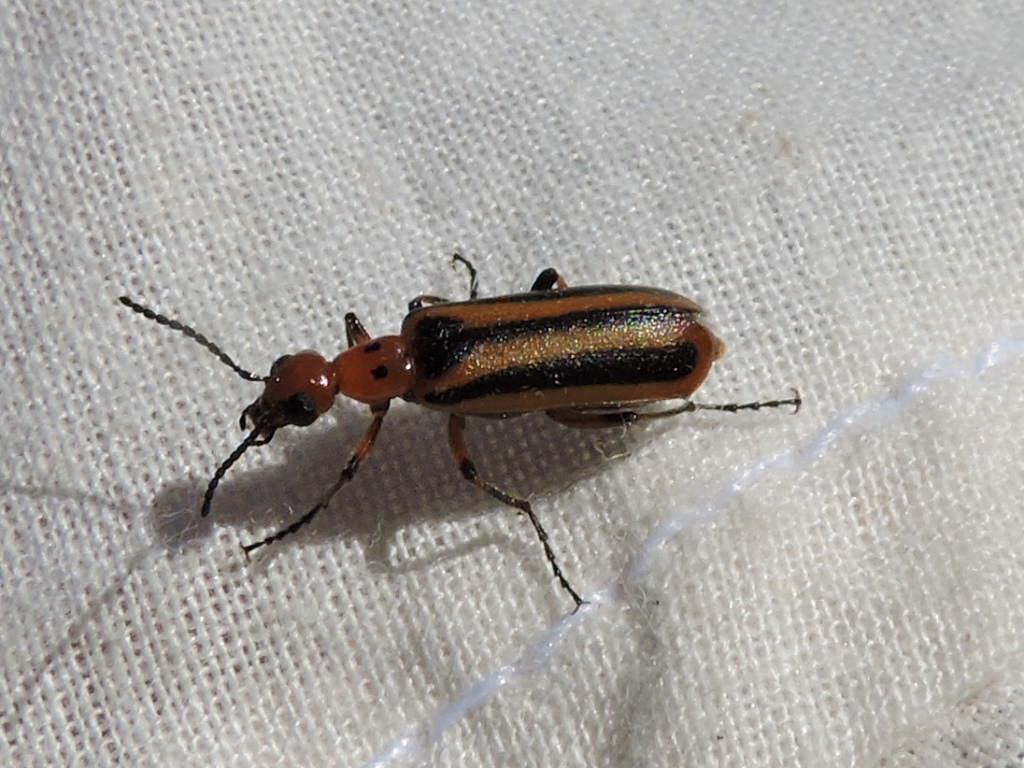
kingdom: Animalia
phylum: Arthropoda
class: Insecta
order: Coleoptera
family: Meloidae
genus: Pyrota
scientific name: Pyrota discoidea
